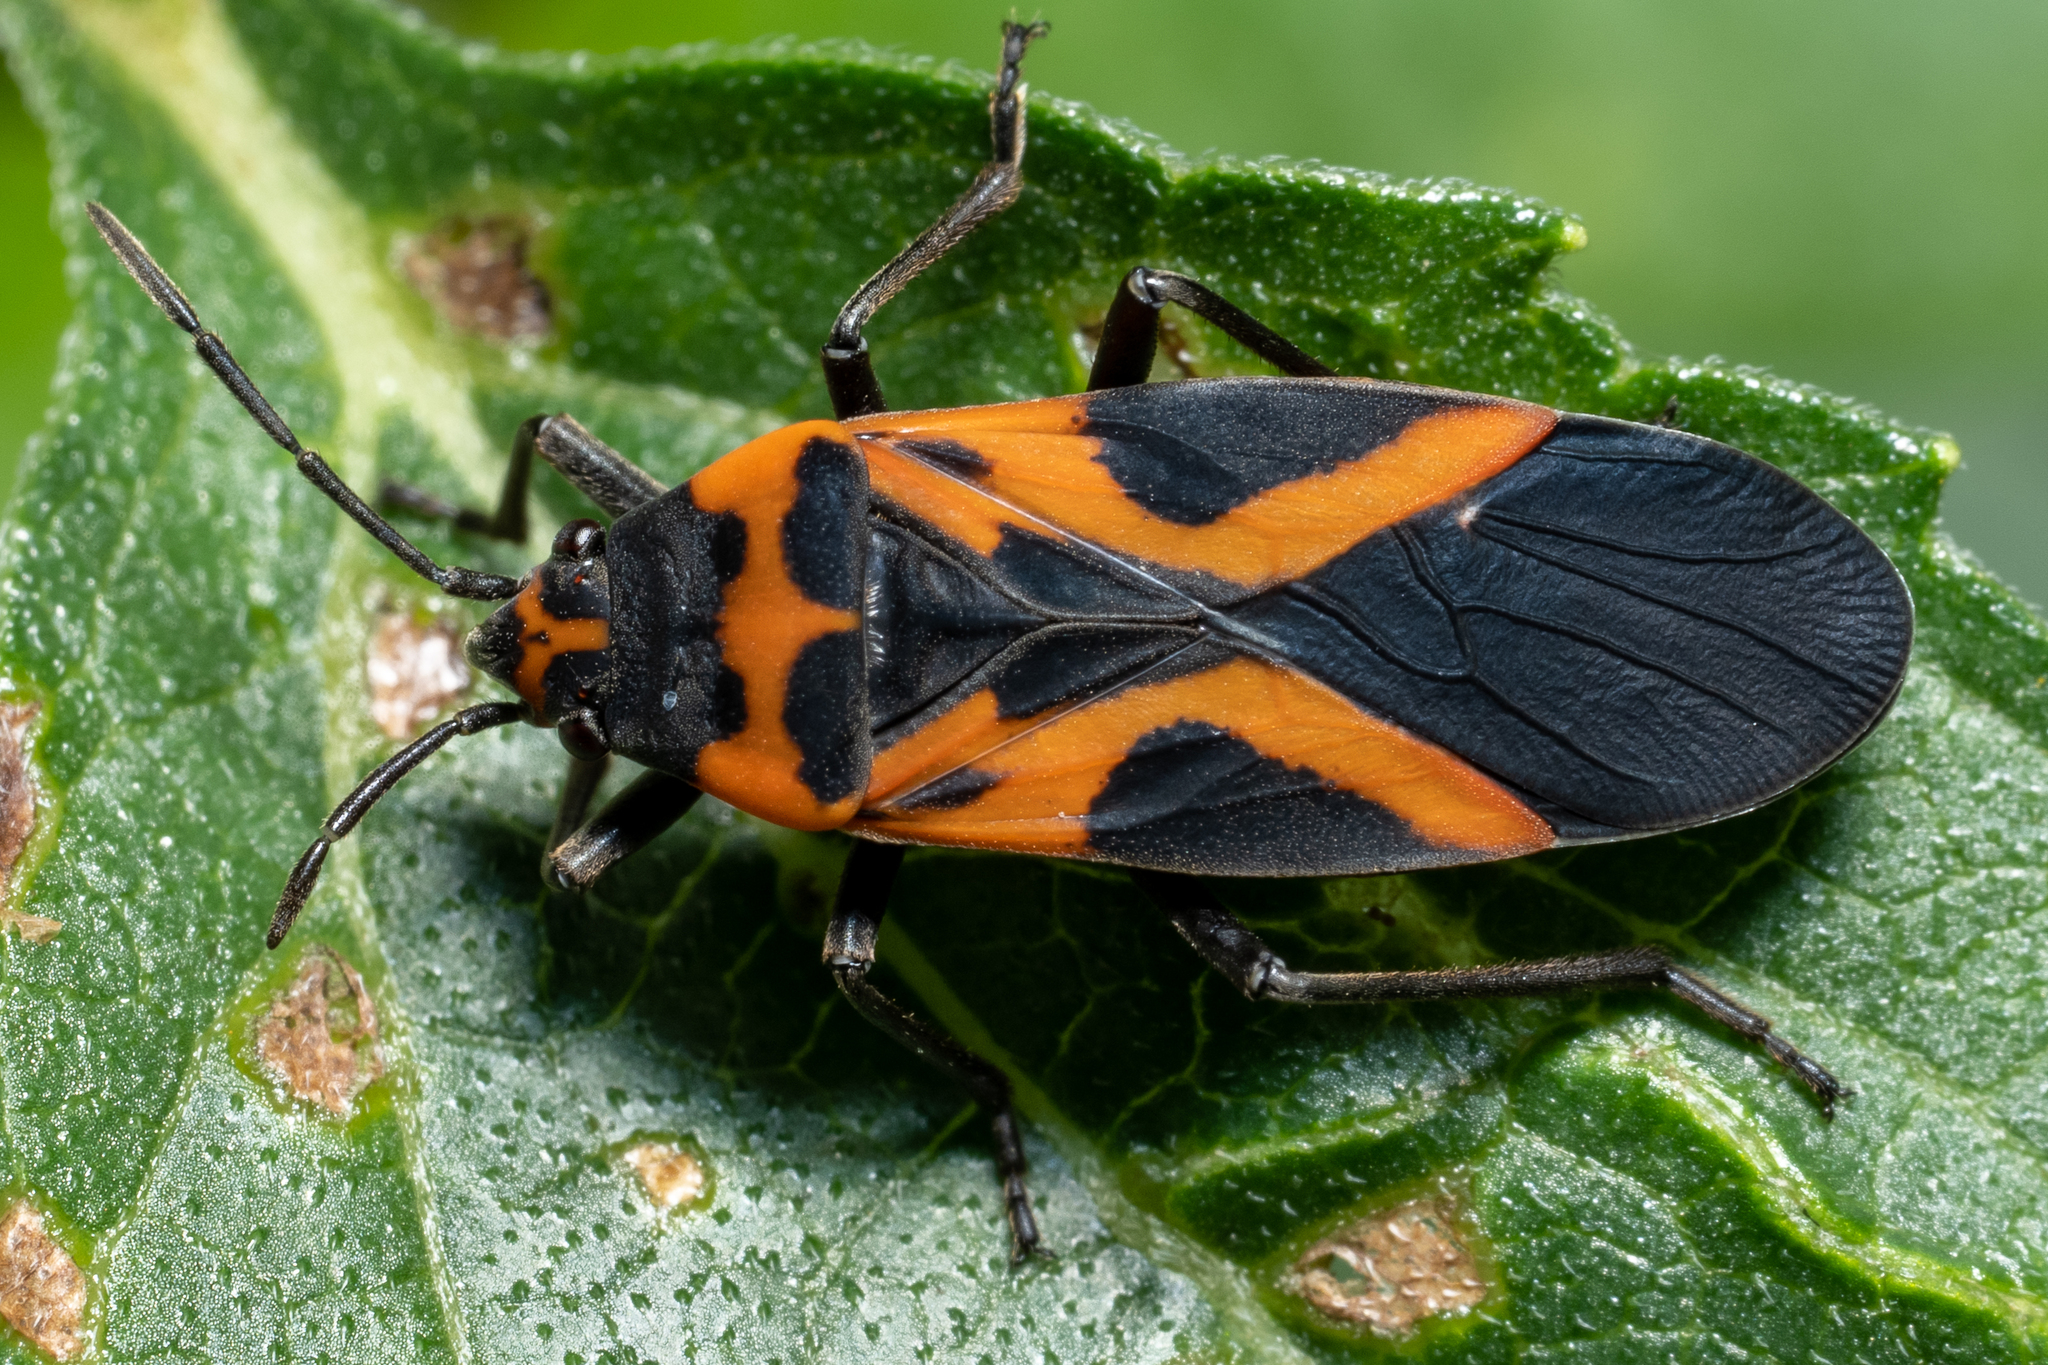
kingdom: Animalia
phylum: Arthropoda
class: Insecta
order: Hemiptera
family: Lygaeidae
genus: Lygaeus
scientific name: Lygaeus turcicus
